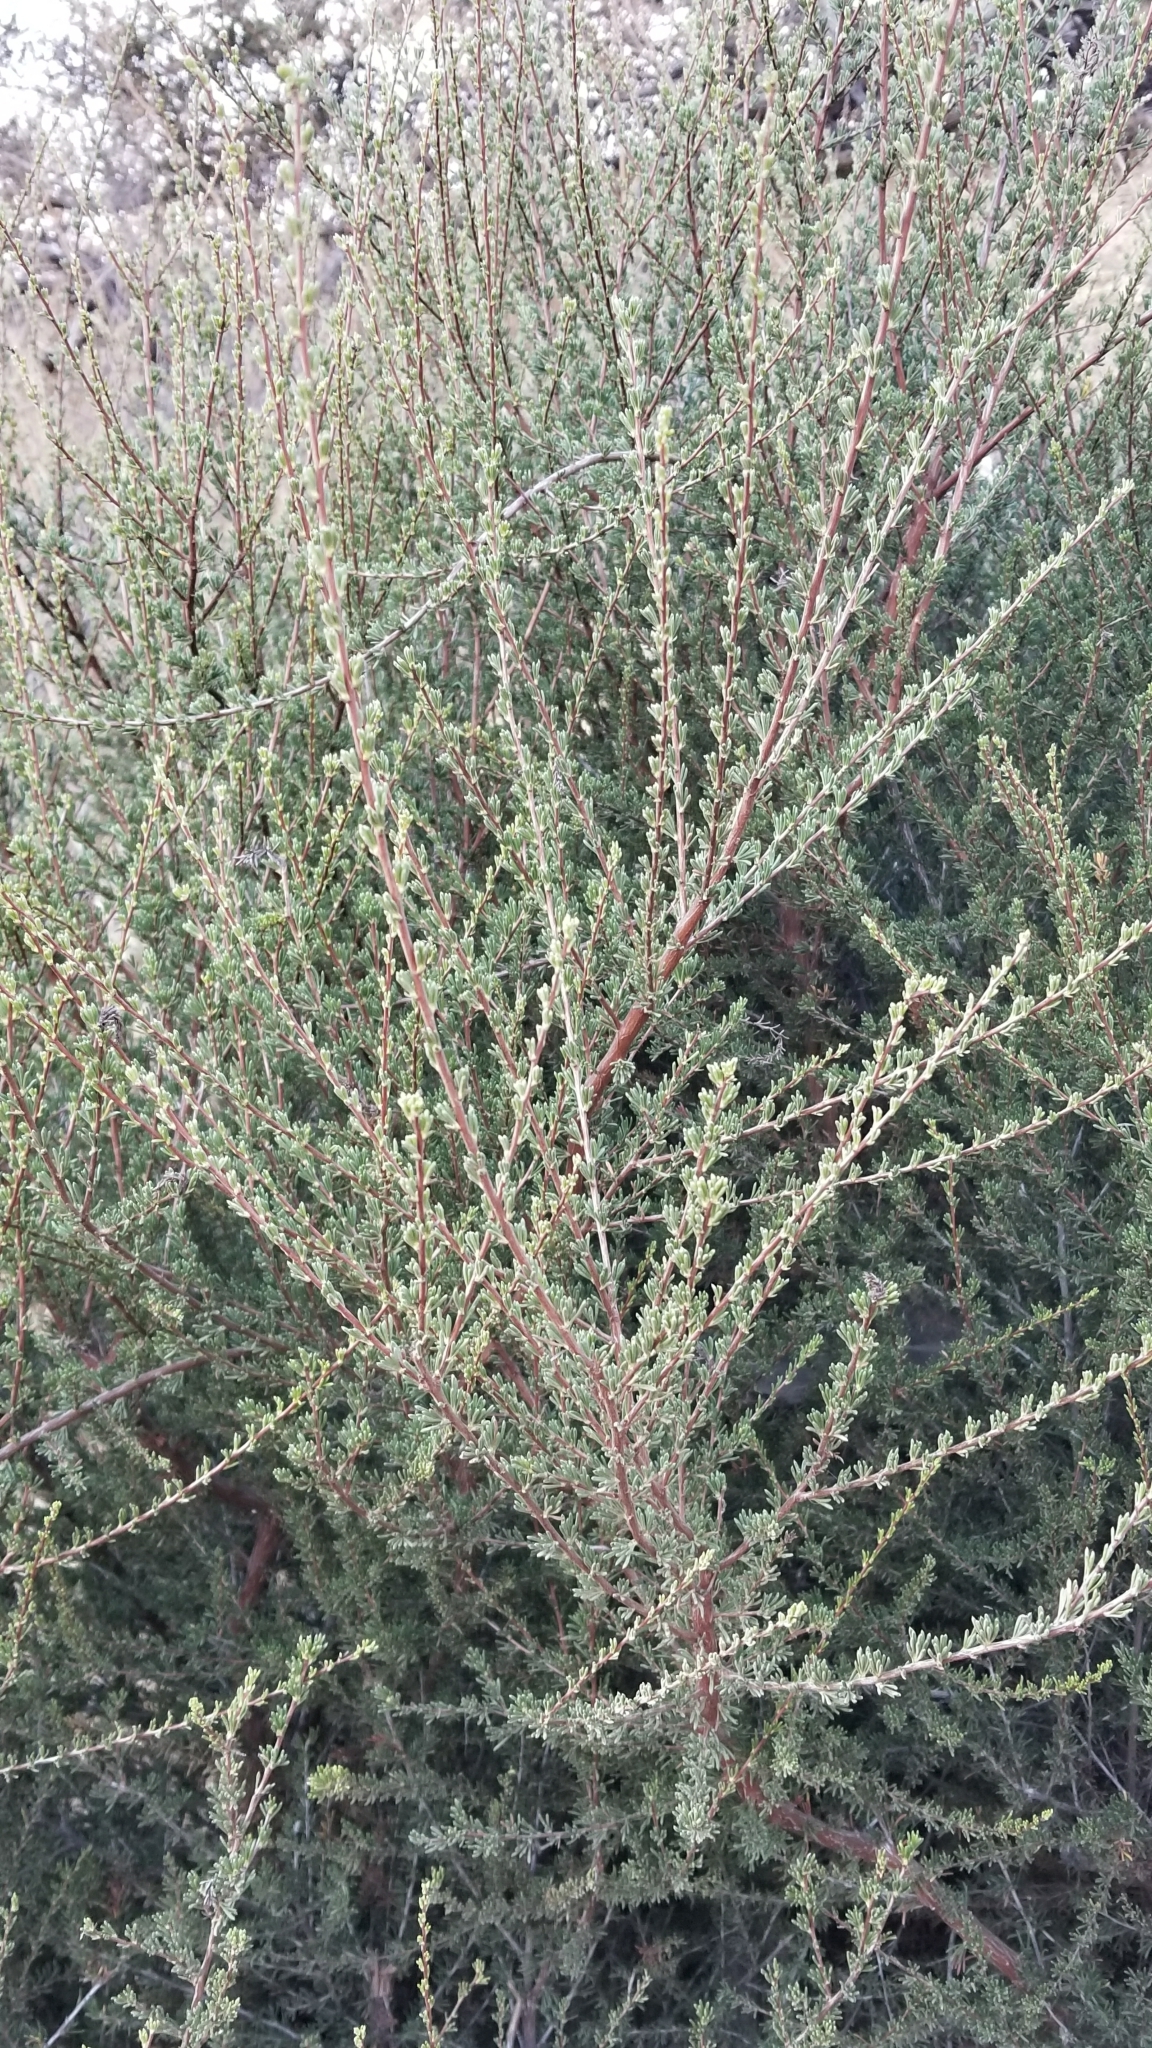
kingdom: Plantae
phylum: Tracheophyta
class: Magnoliopsida
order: Rosales
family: Rosaceae
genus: Adenostoma
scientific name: Adenostoma fasciculatum
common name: Chamise
